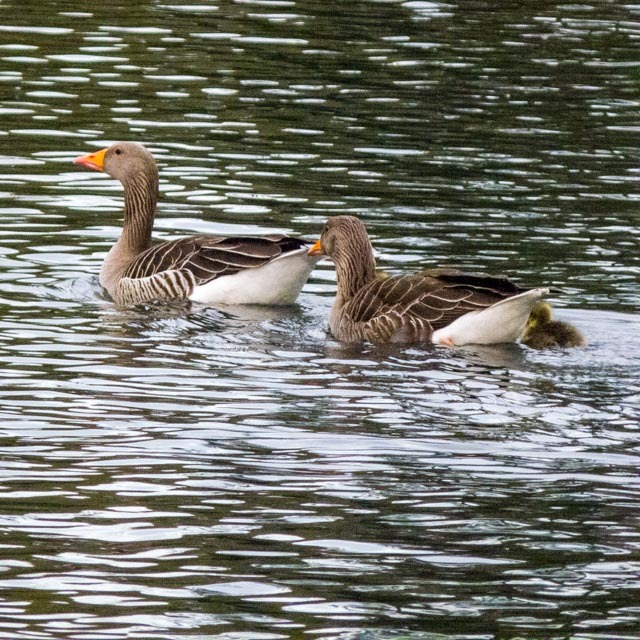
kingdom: Animalia
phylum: Chordata
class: Aves
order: Anseriformes
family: Anatidae
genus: Anser
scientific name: Anser anser
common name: Greylag goose
